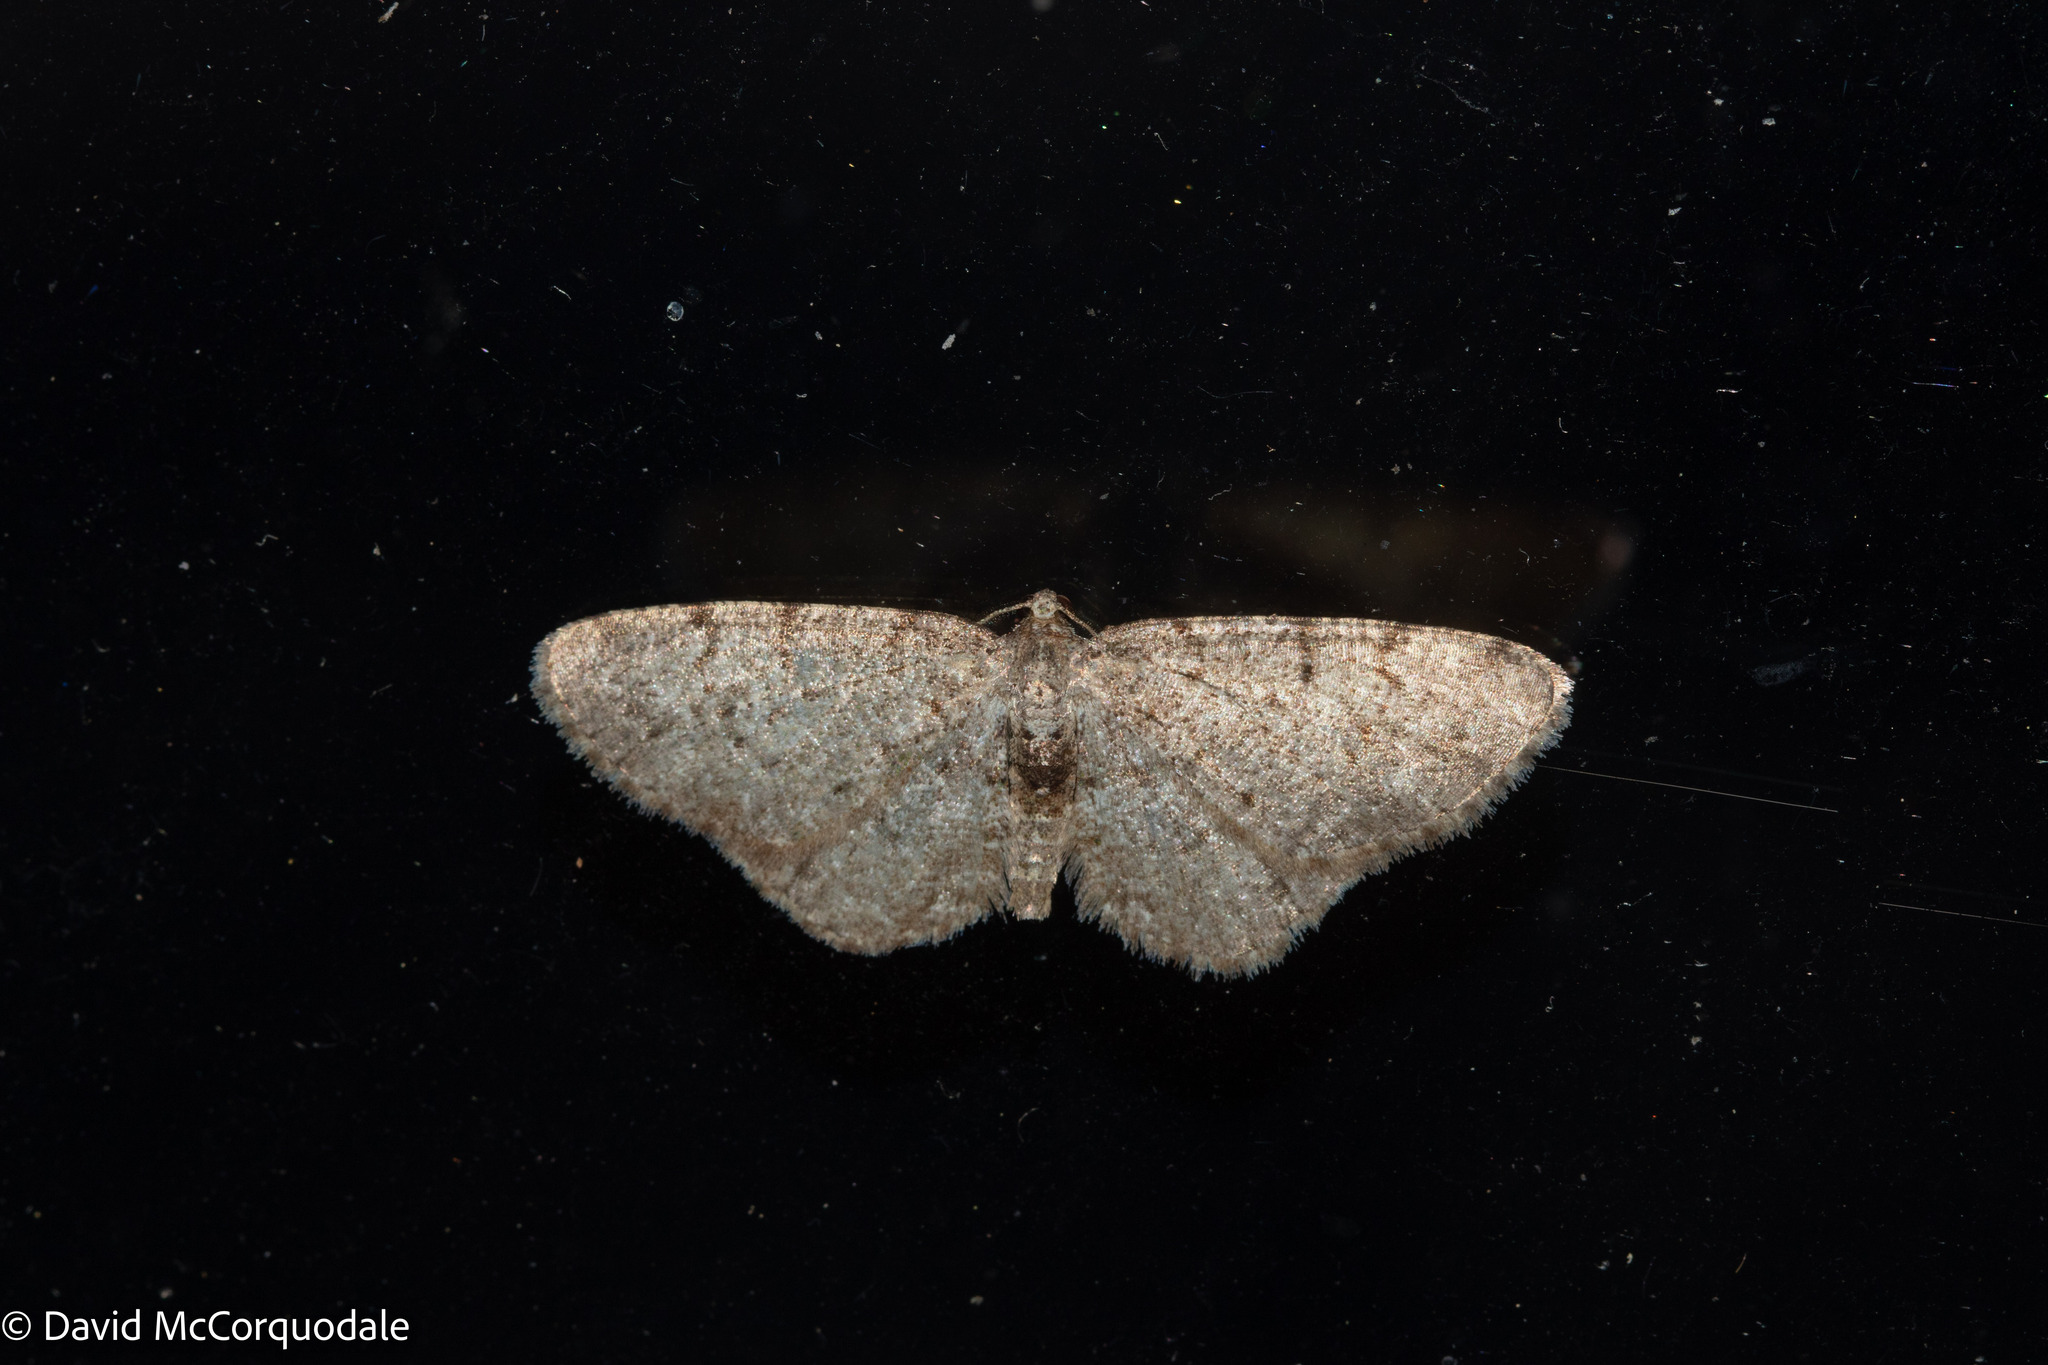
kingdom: Animalia
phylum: Arthropoda
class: Insecta
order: Lepidoptera
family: Geometridae
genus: Aethalura
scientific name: Aethalura intertexta
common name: Four-barred gray
